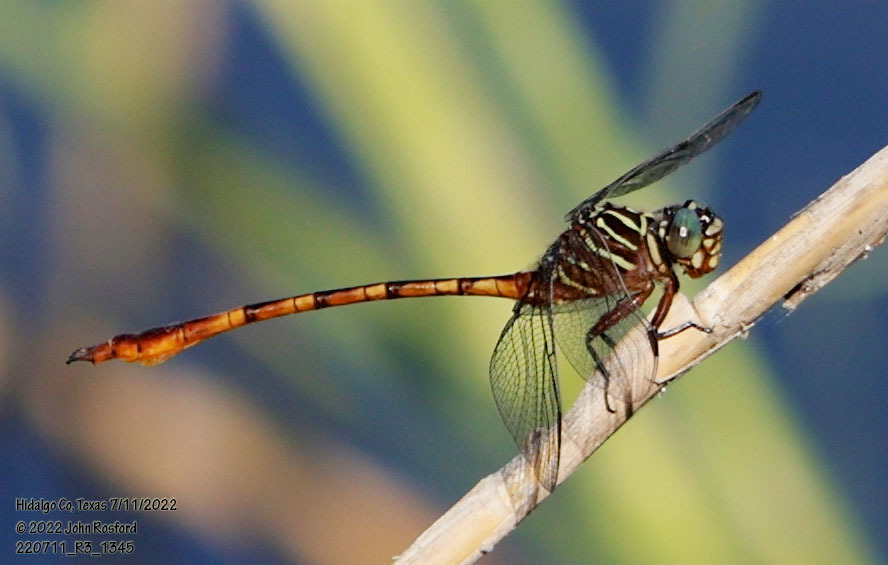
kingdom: Animalia
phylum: Arthropoda
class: Insecta
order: Odonata
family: Gomphidae
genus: Aphylla
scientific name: Aphylla protracta
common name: Narrow-striped forceptail
